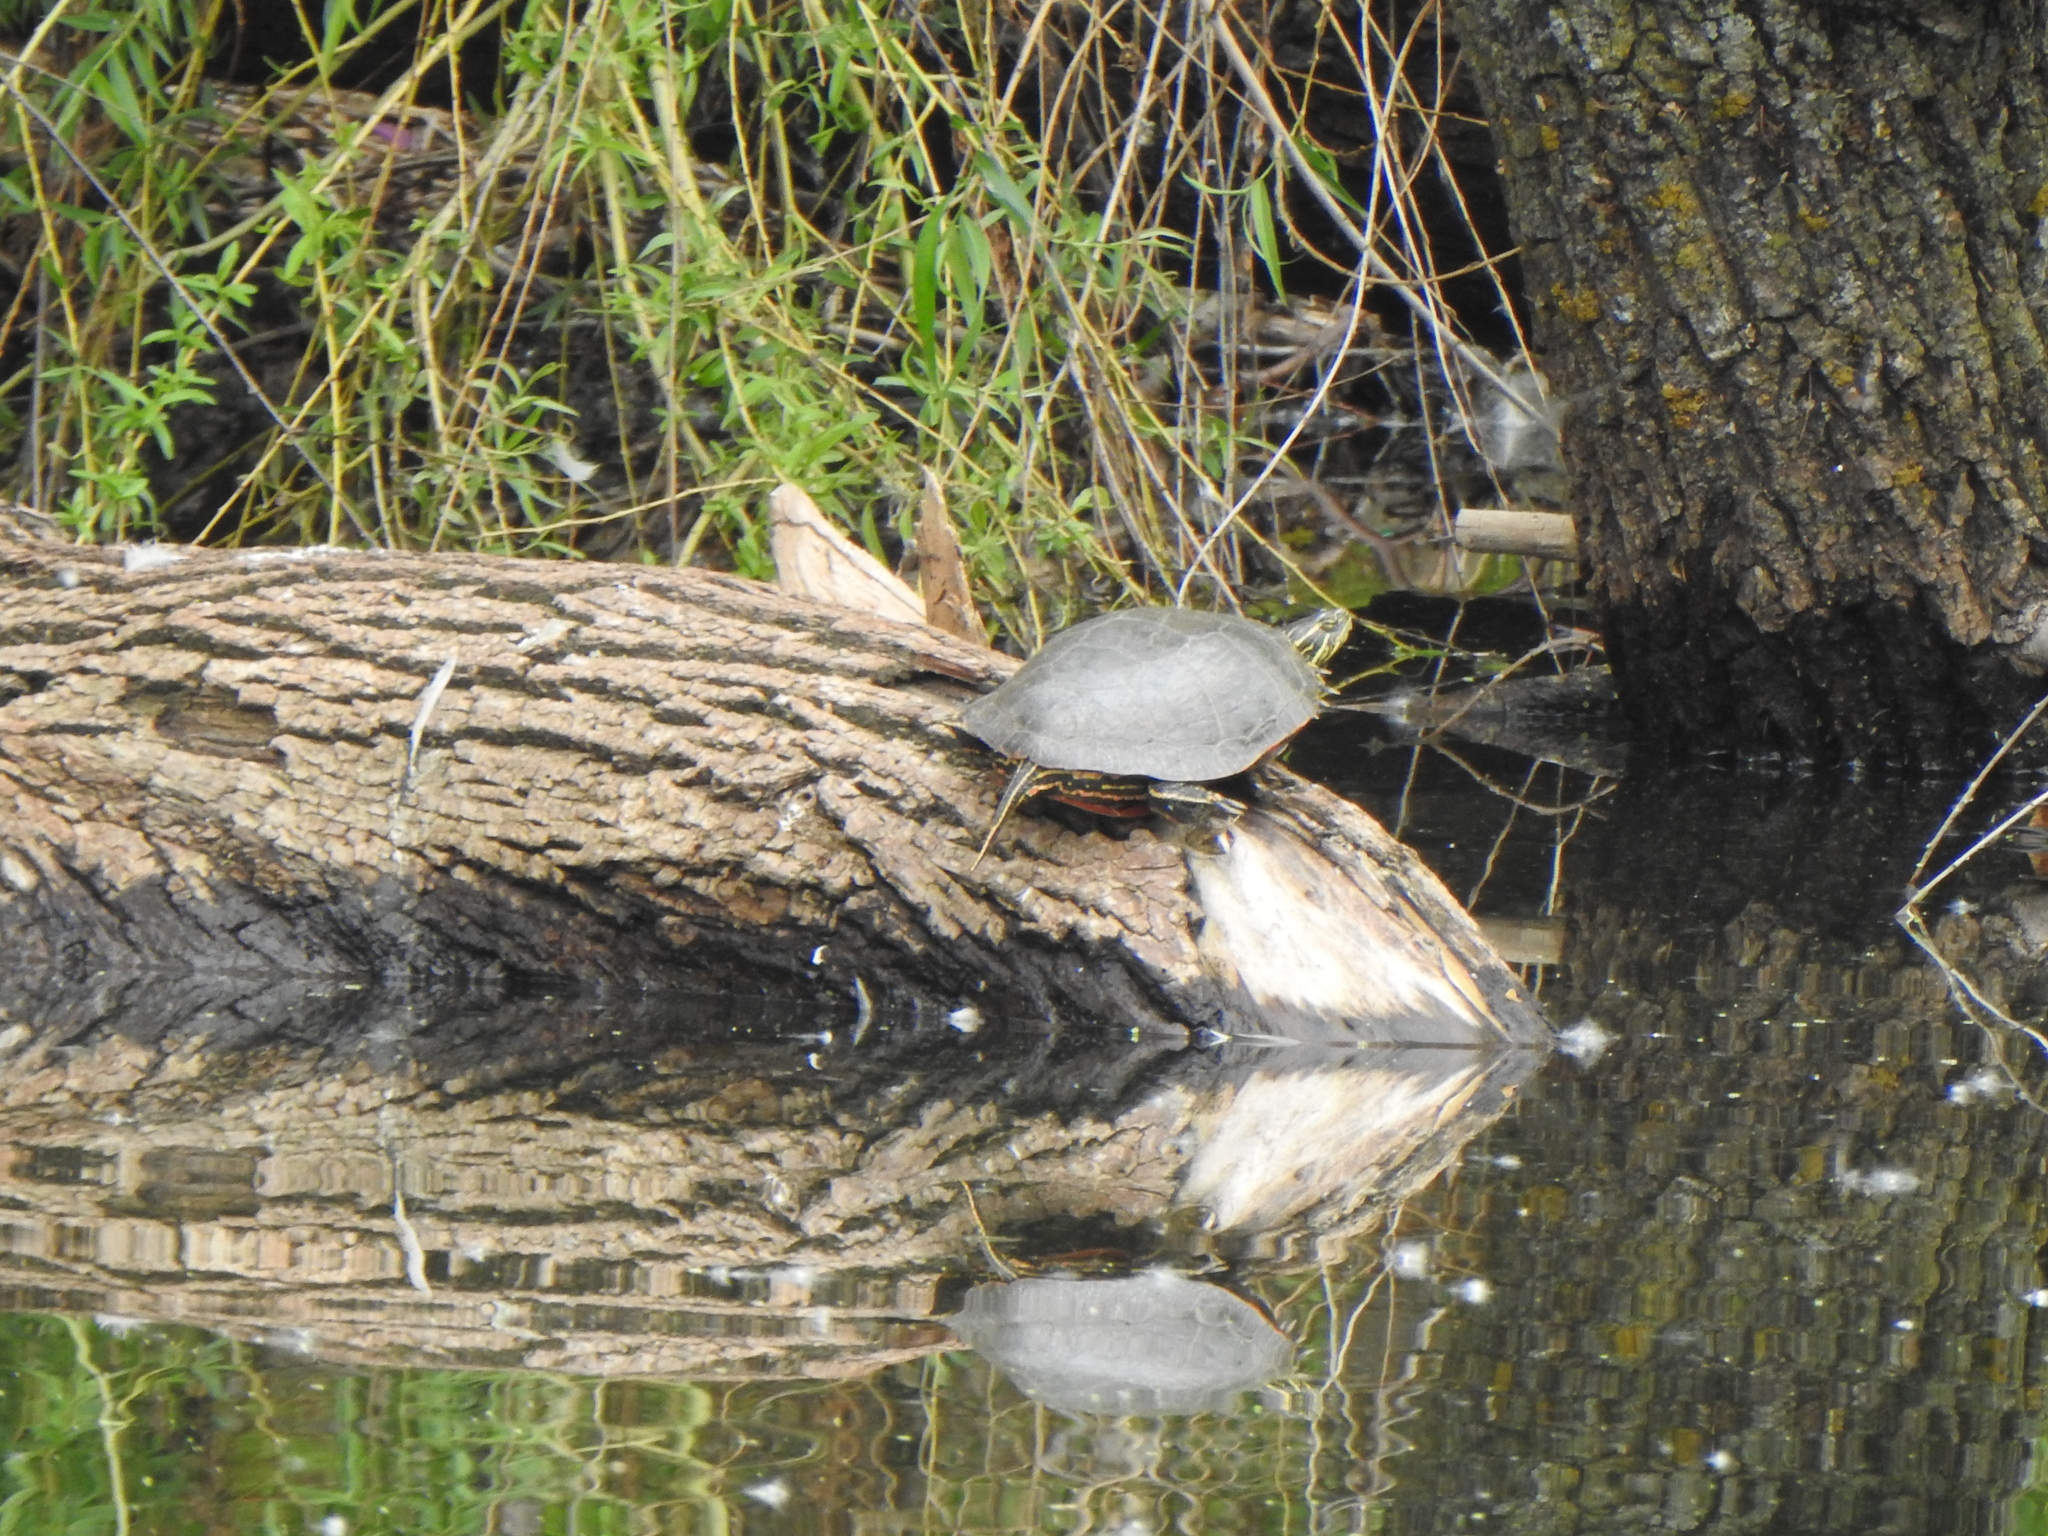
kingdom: Animalia
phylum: Chordata
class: Testudines
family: Emydidae
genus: Chrysemys
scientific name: Chrysemys picta
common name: Painted turtle
